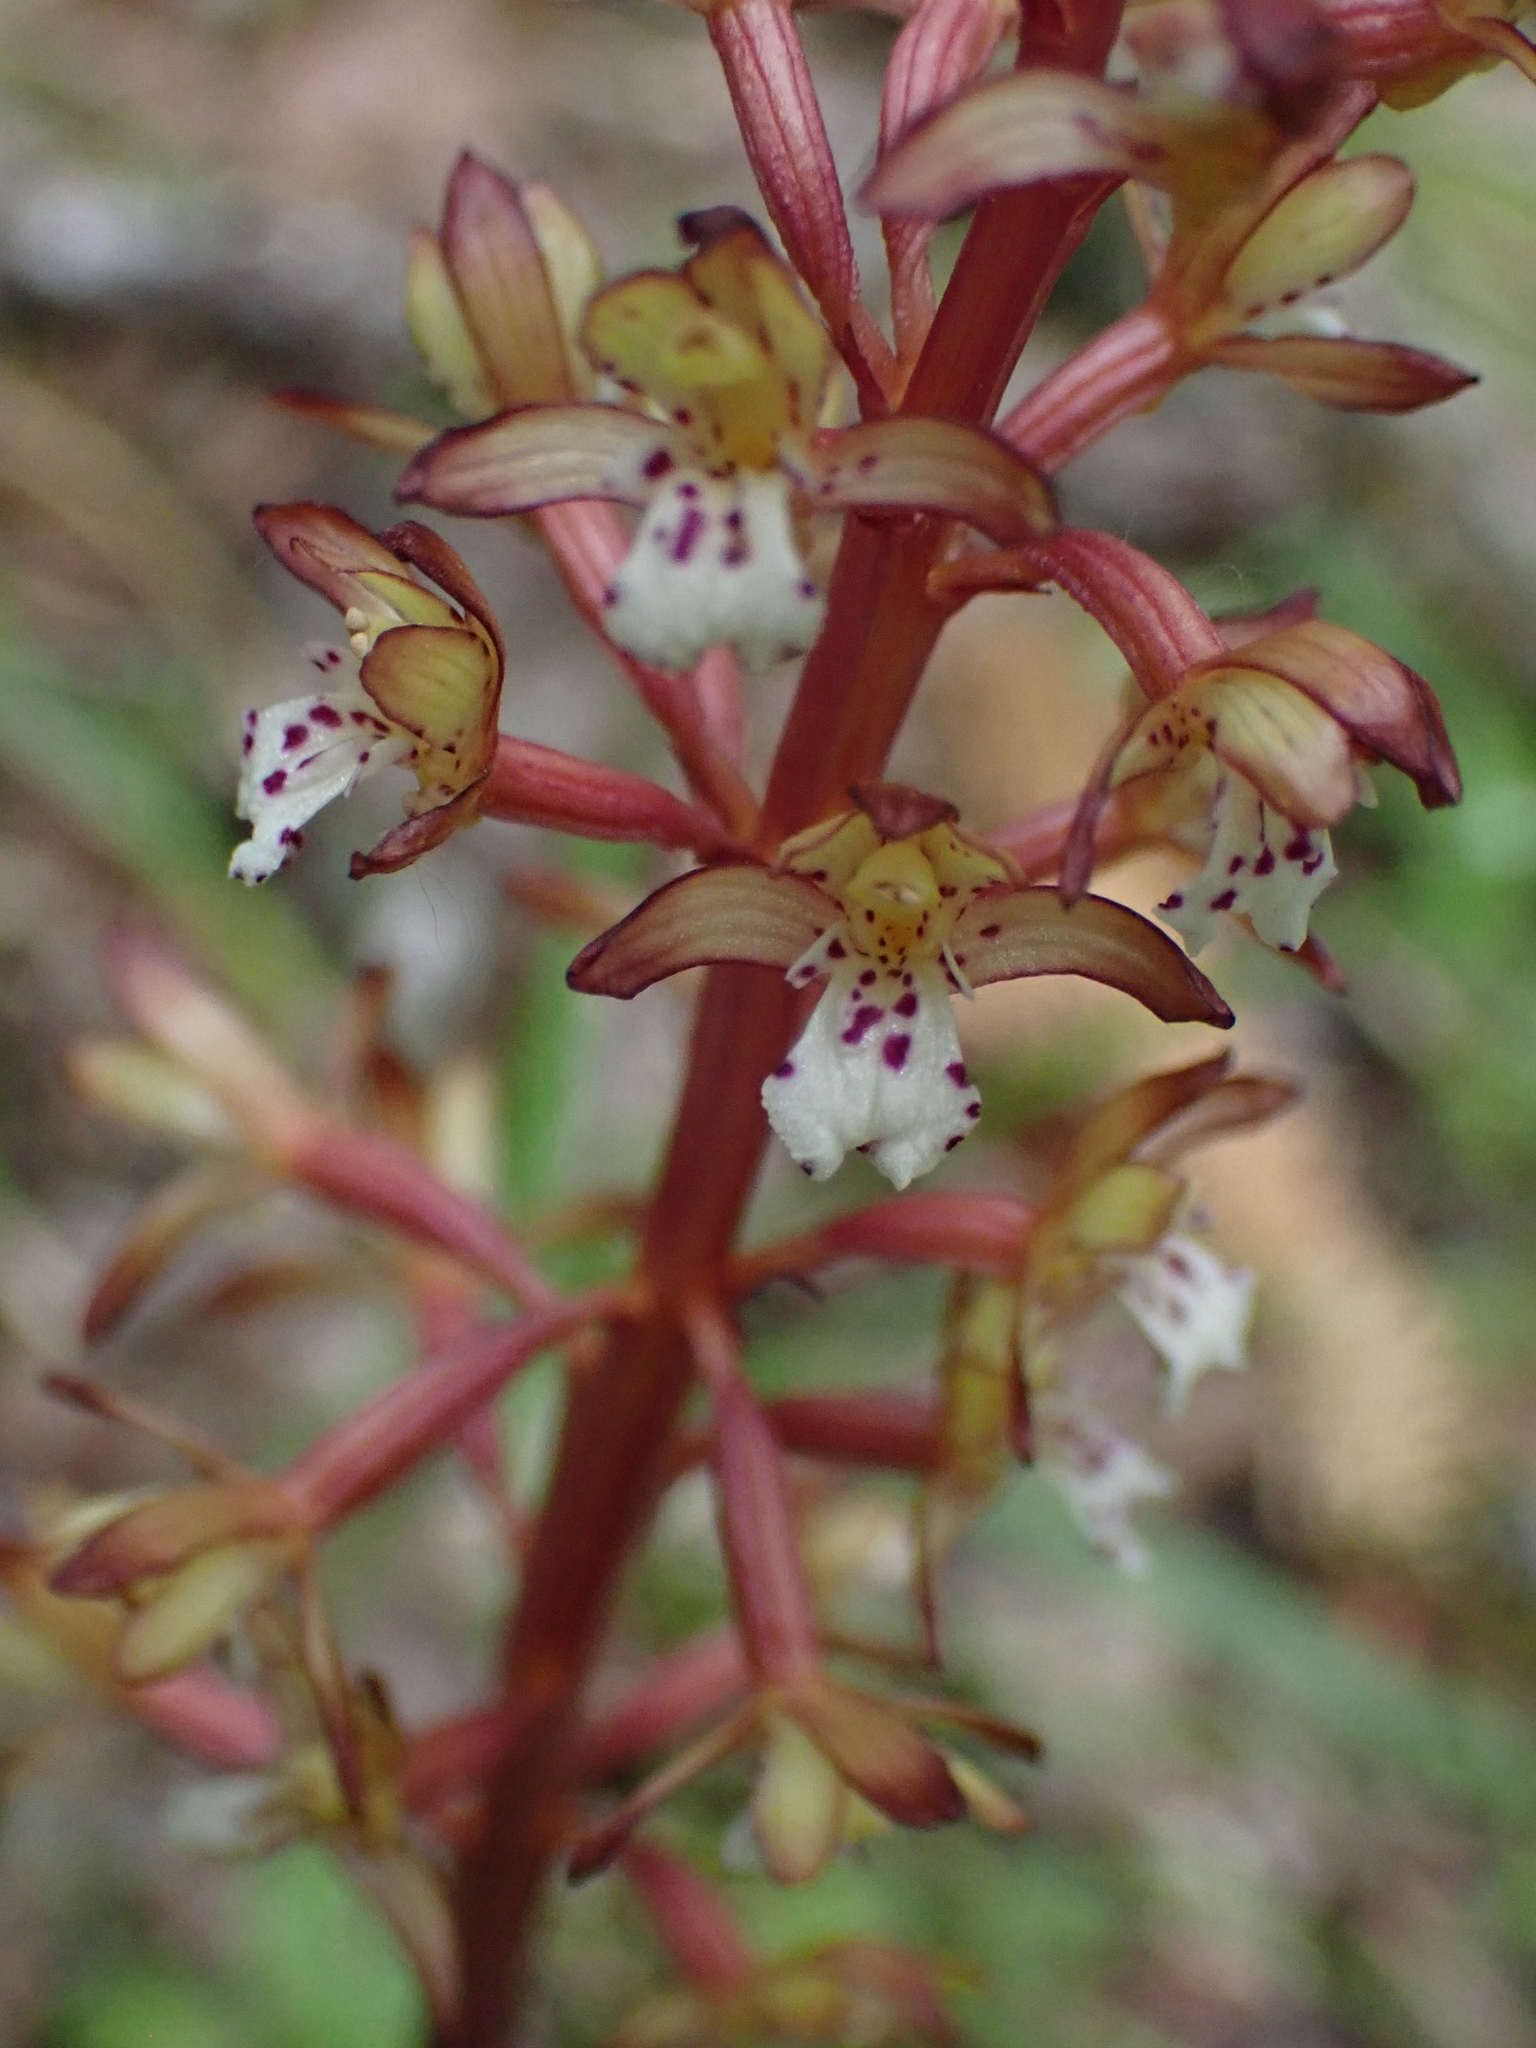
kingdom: Plantae
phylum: Tracheophyta
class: Liliopsida
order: Asparagales
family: Orchidaceae
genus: Corallorhiza
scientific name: Corallorhiza maculata
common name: Spotted coralroot
